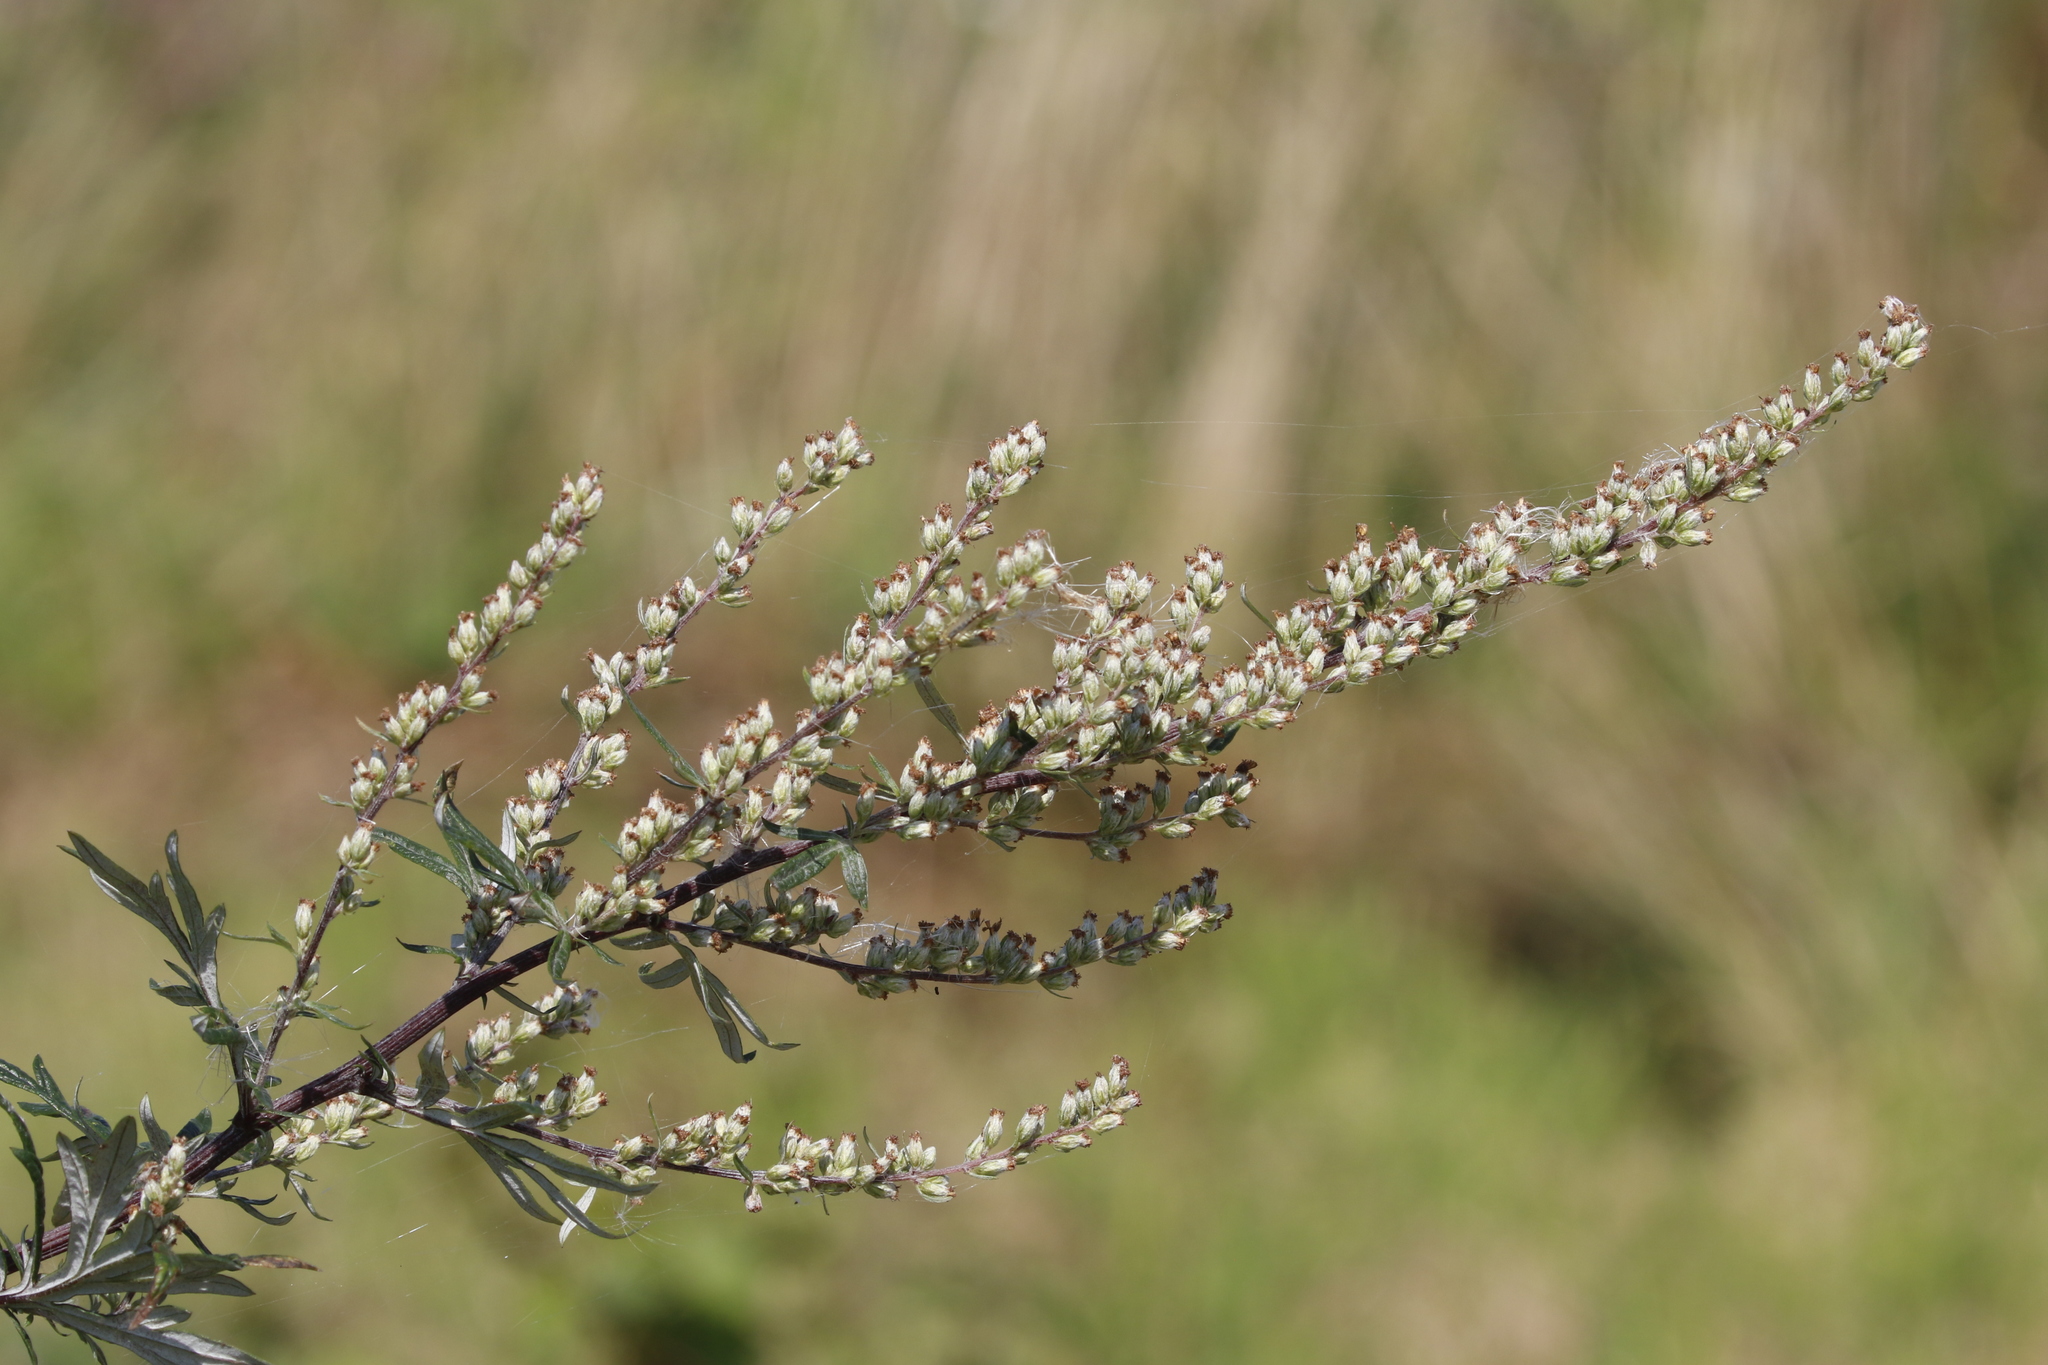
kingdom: Plantae
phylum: Tracheophyta
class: Magnoliopsida
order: Asterales
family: Asteraceae
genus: Artemisia
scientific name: Artemisia vulgaris
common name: Mugwort
